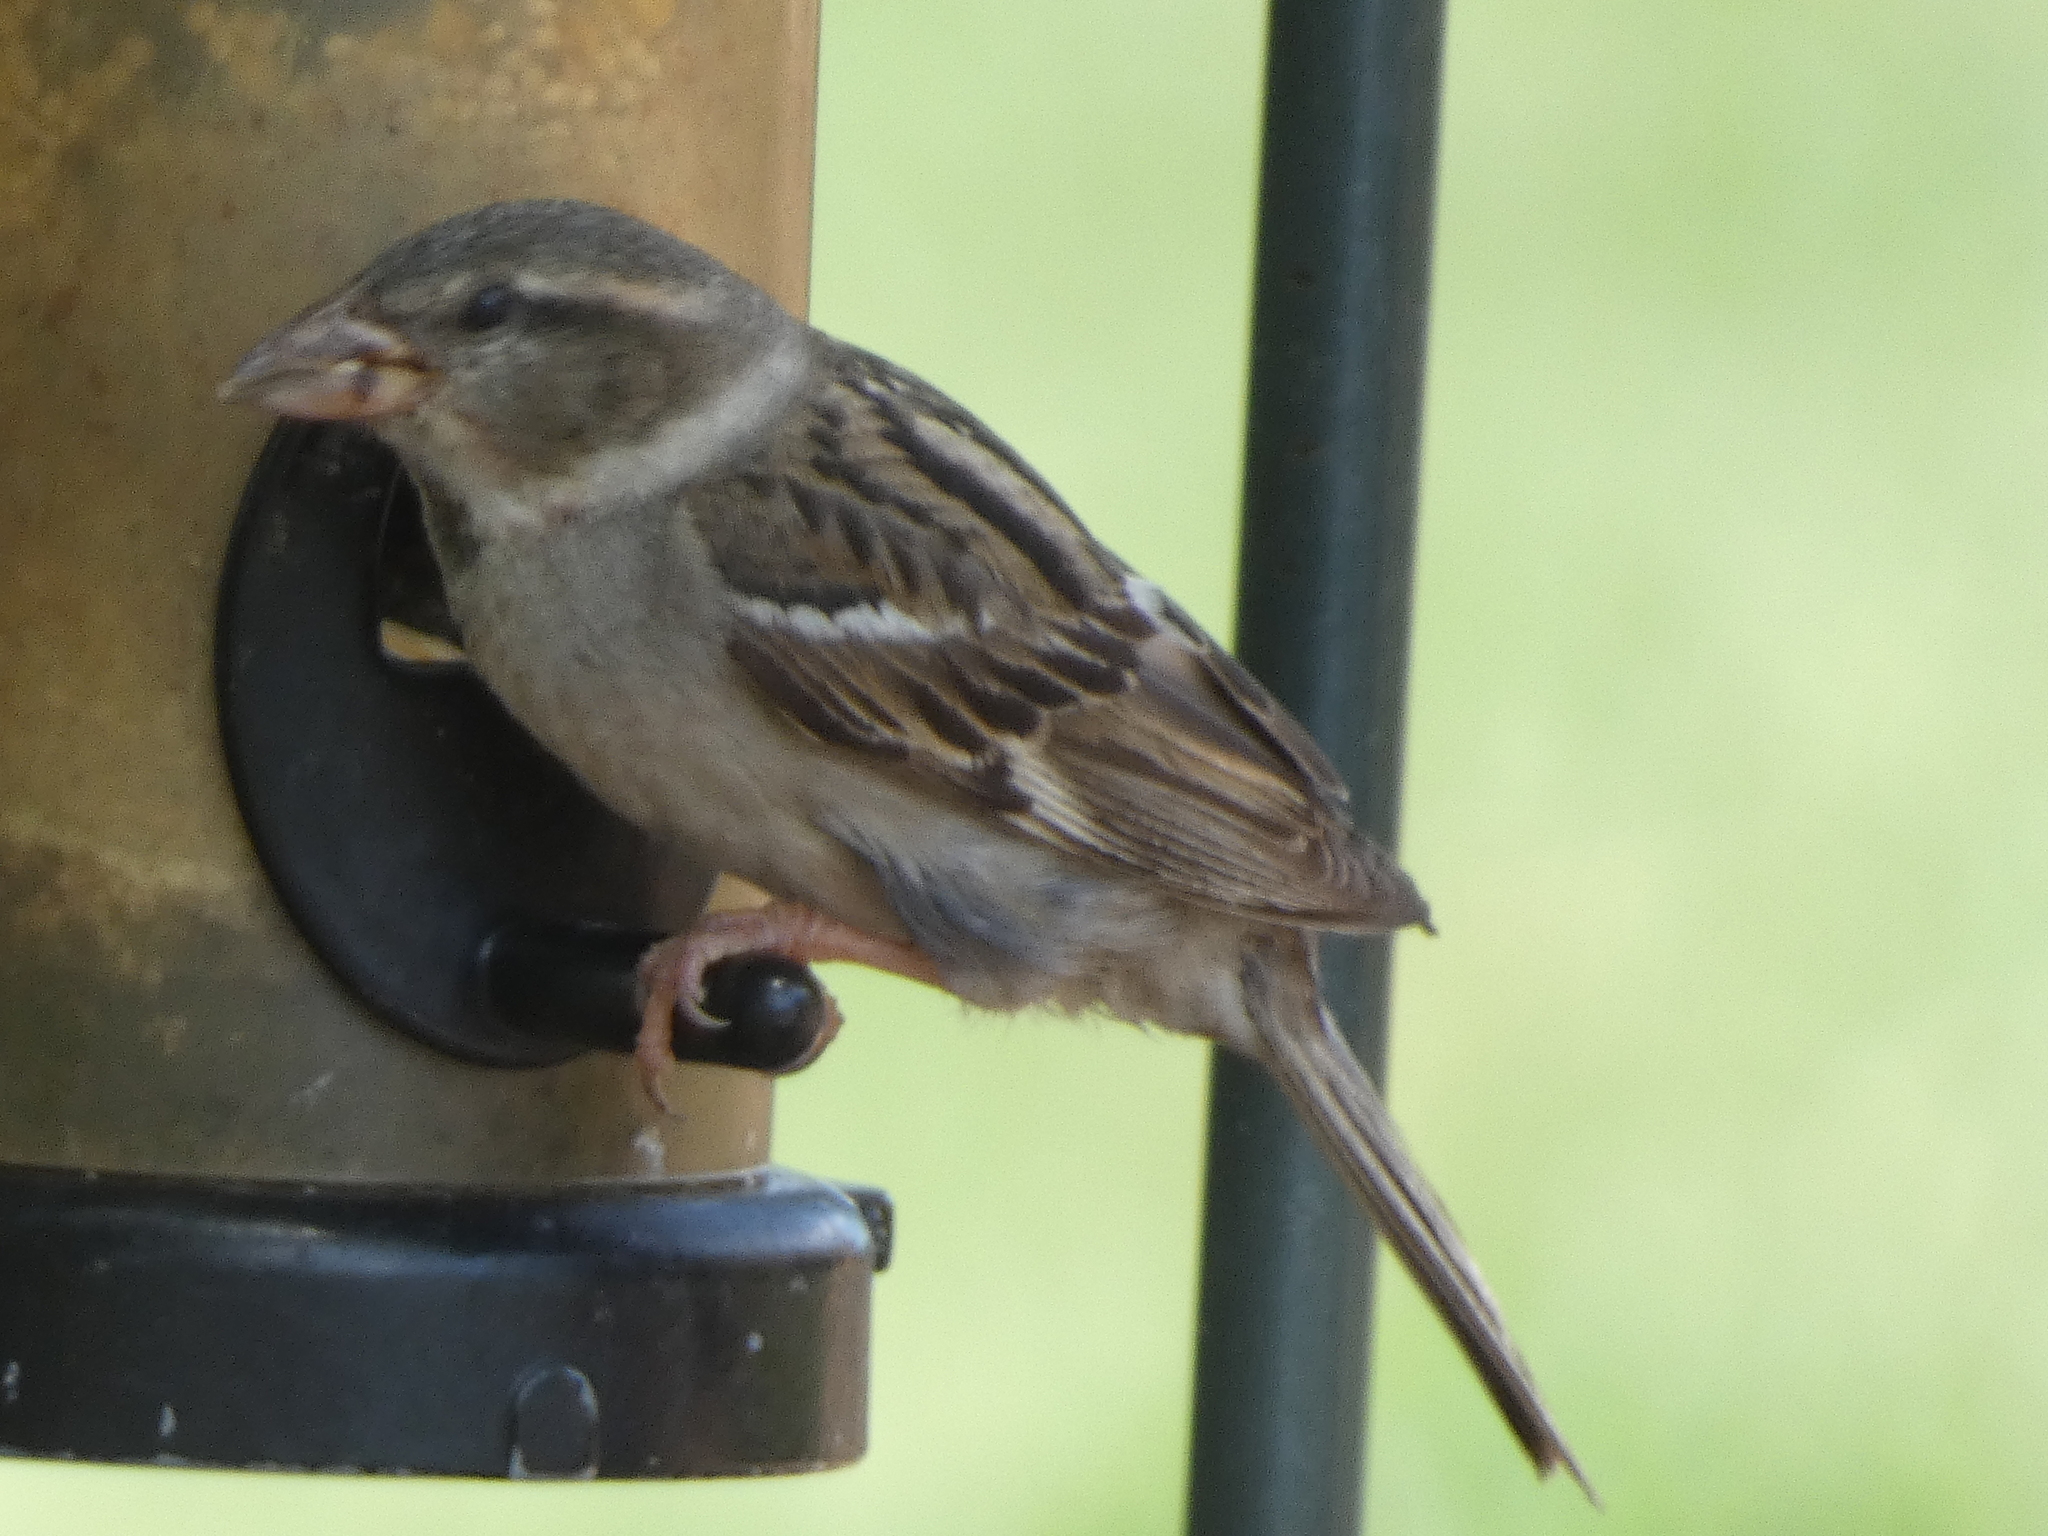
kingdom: Animalia
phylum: Chordata
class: Aves
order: Passeriformes
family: Passeridae
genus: Passer
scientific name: Passer domesticus
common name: House sparrow
